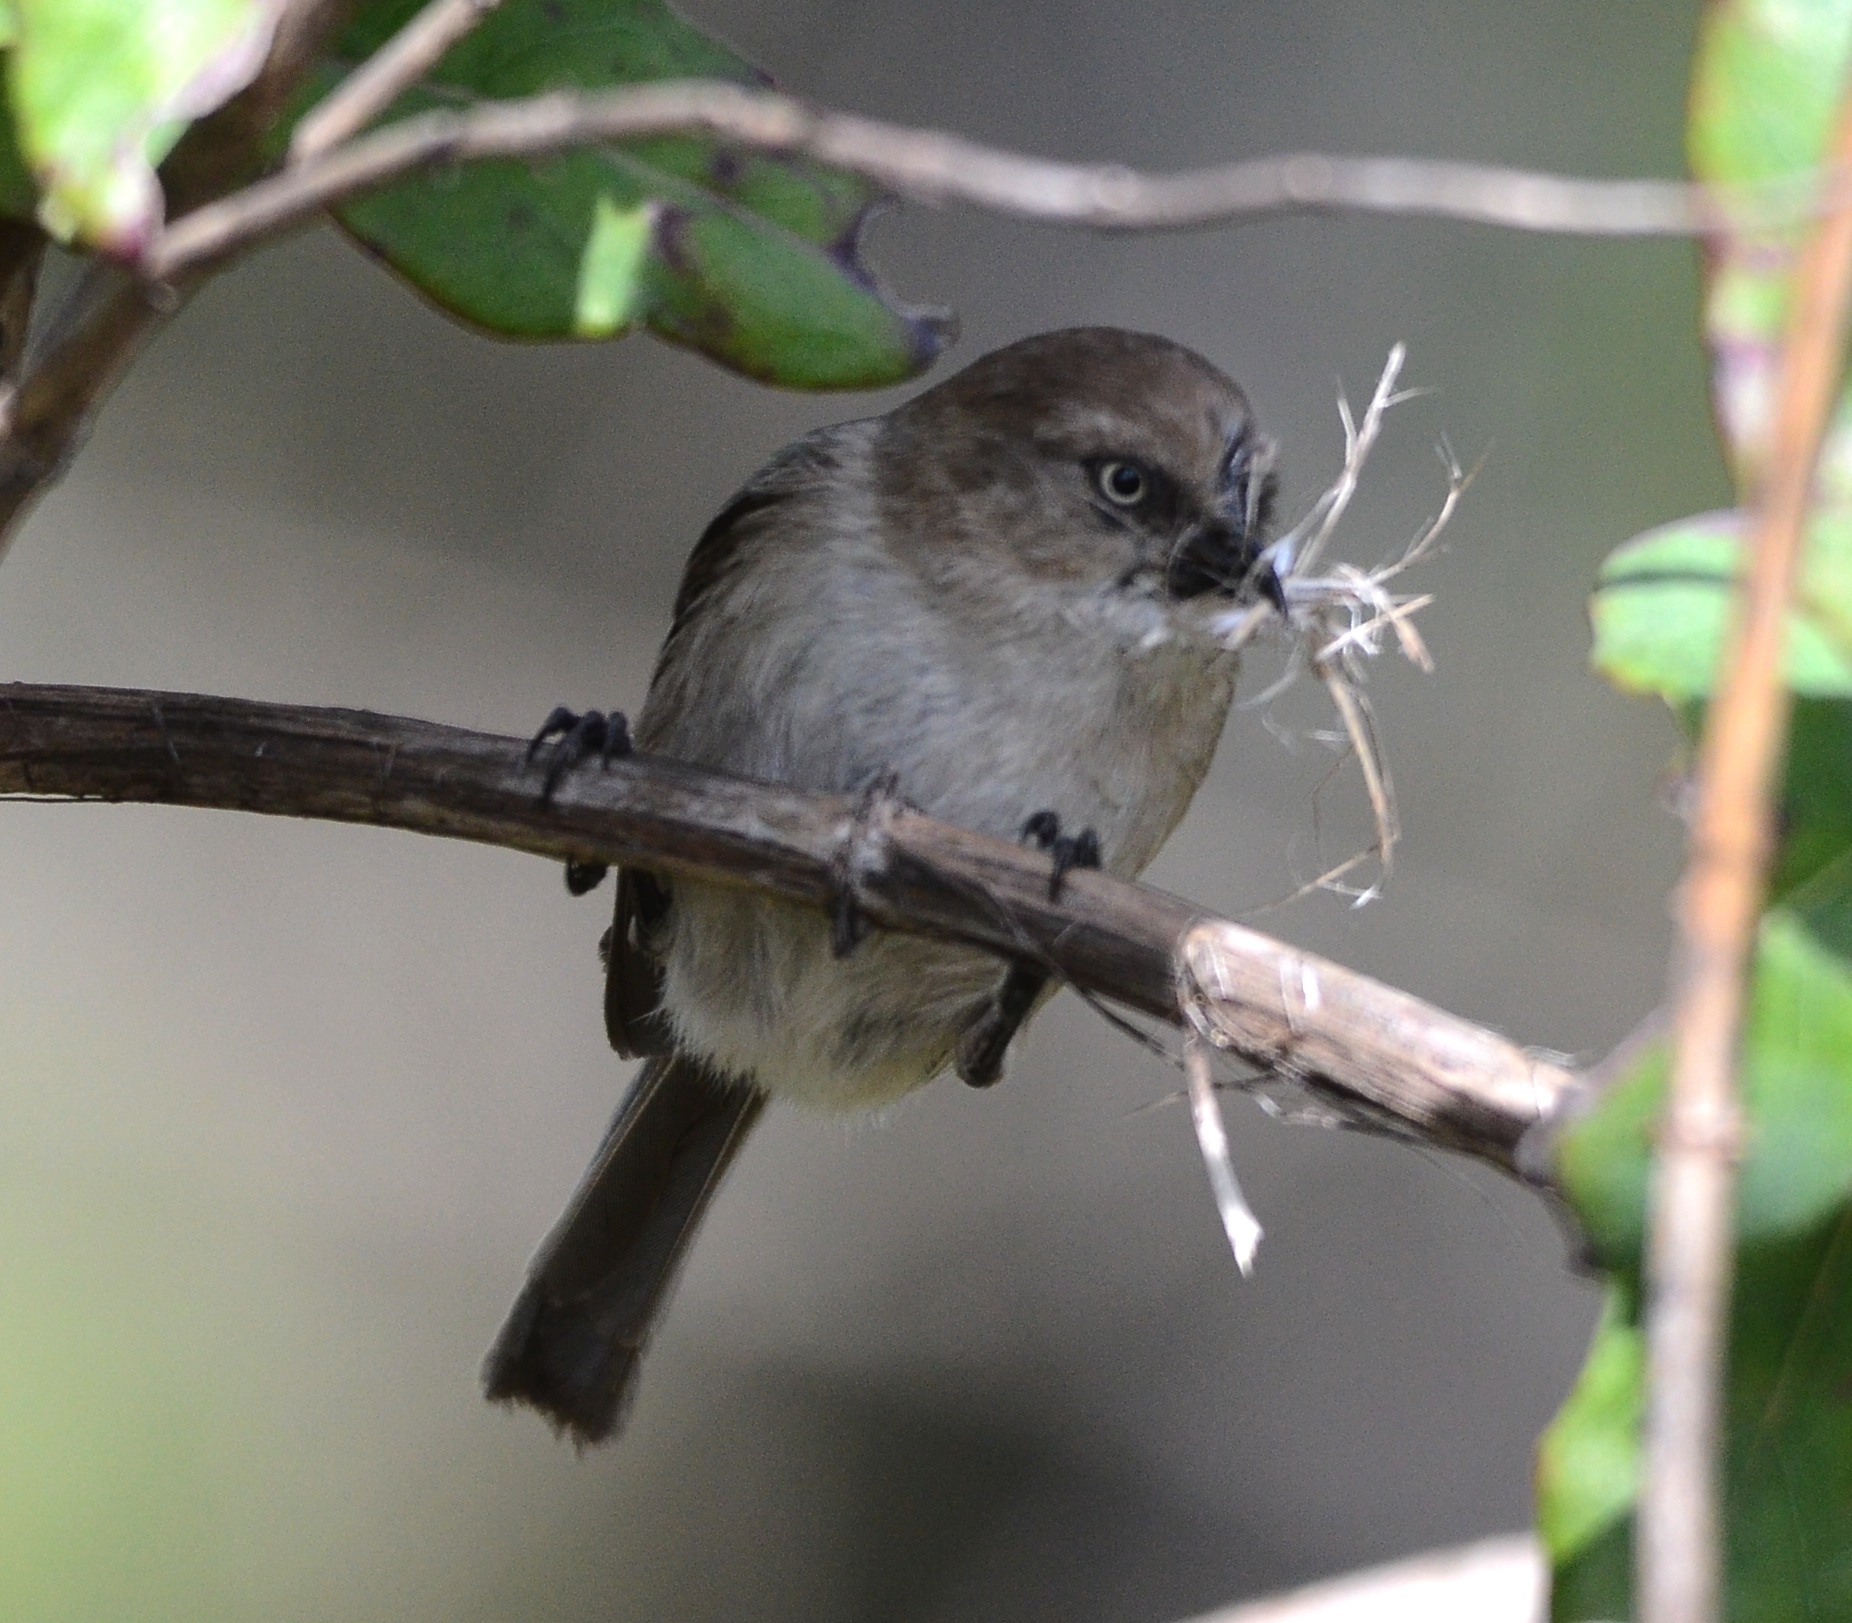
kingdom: Animalia
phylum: Chordata
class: Aves
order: Passeriformes
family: Aegithalidae
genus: Psaltriparus
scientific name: Psaltriparus minimus
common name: American bushtit
